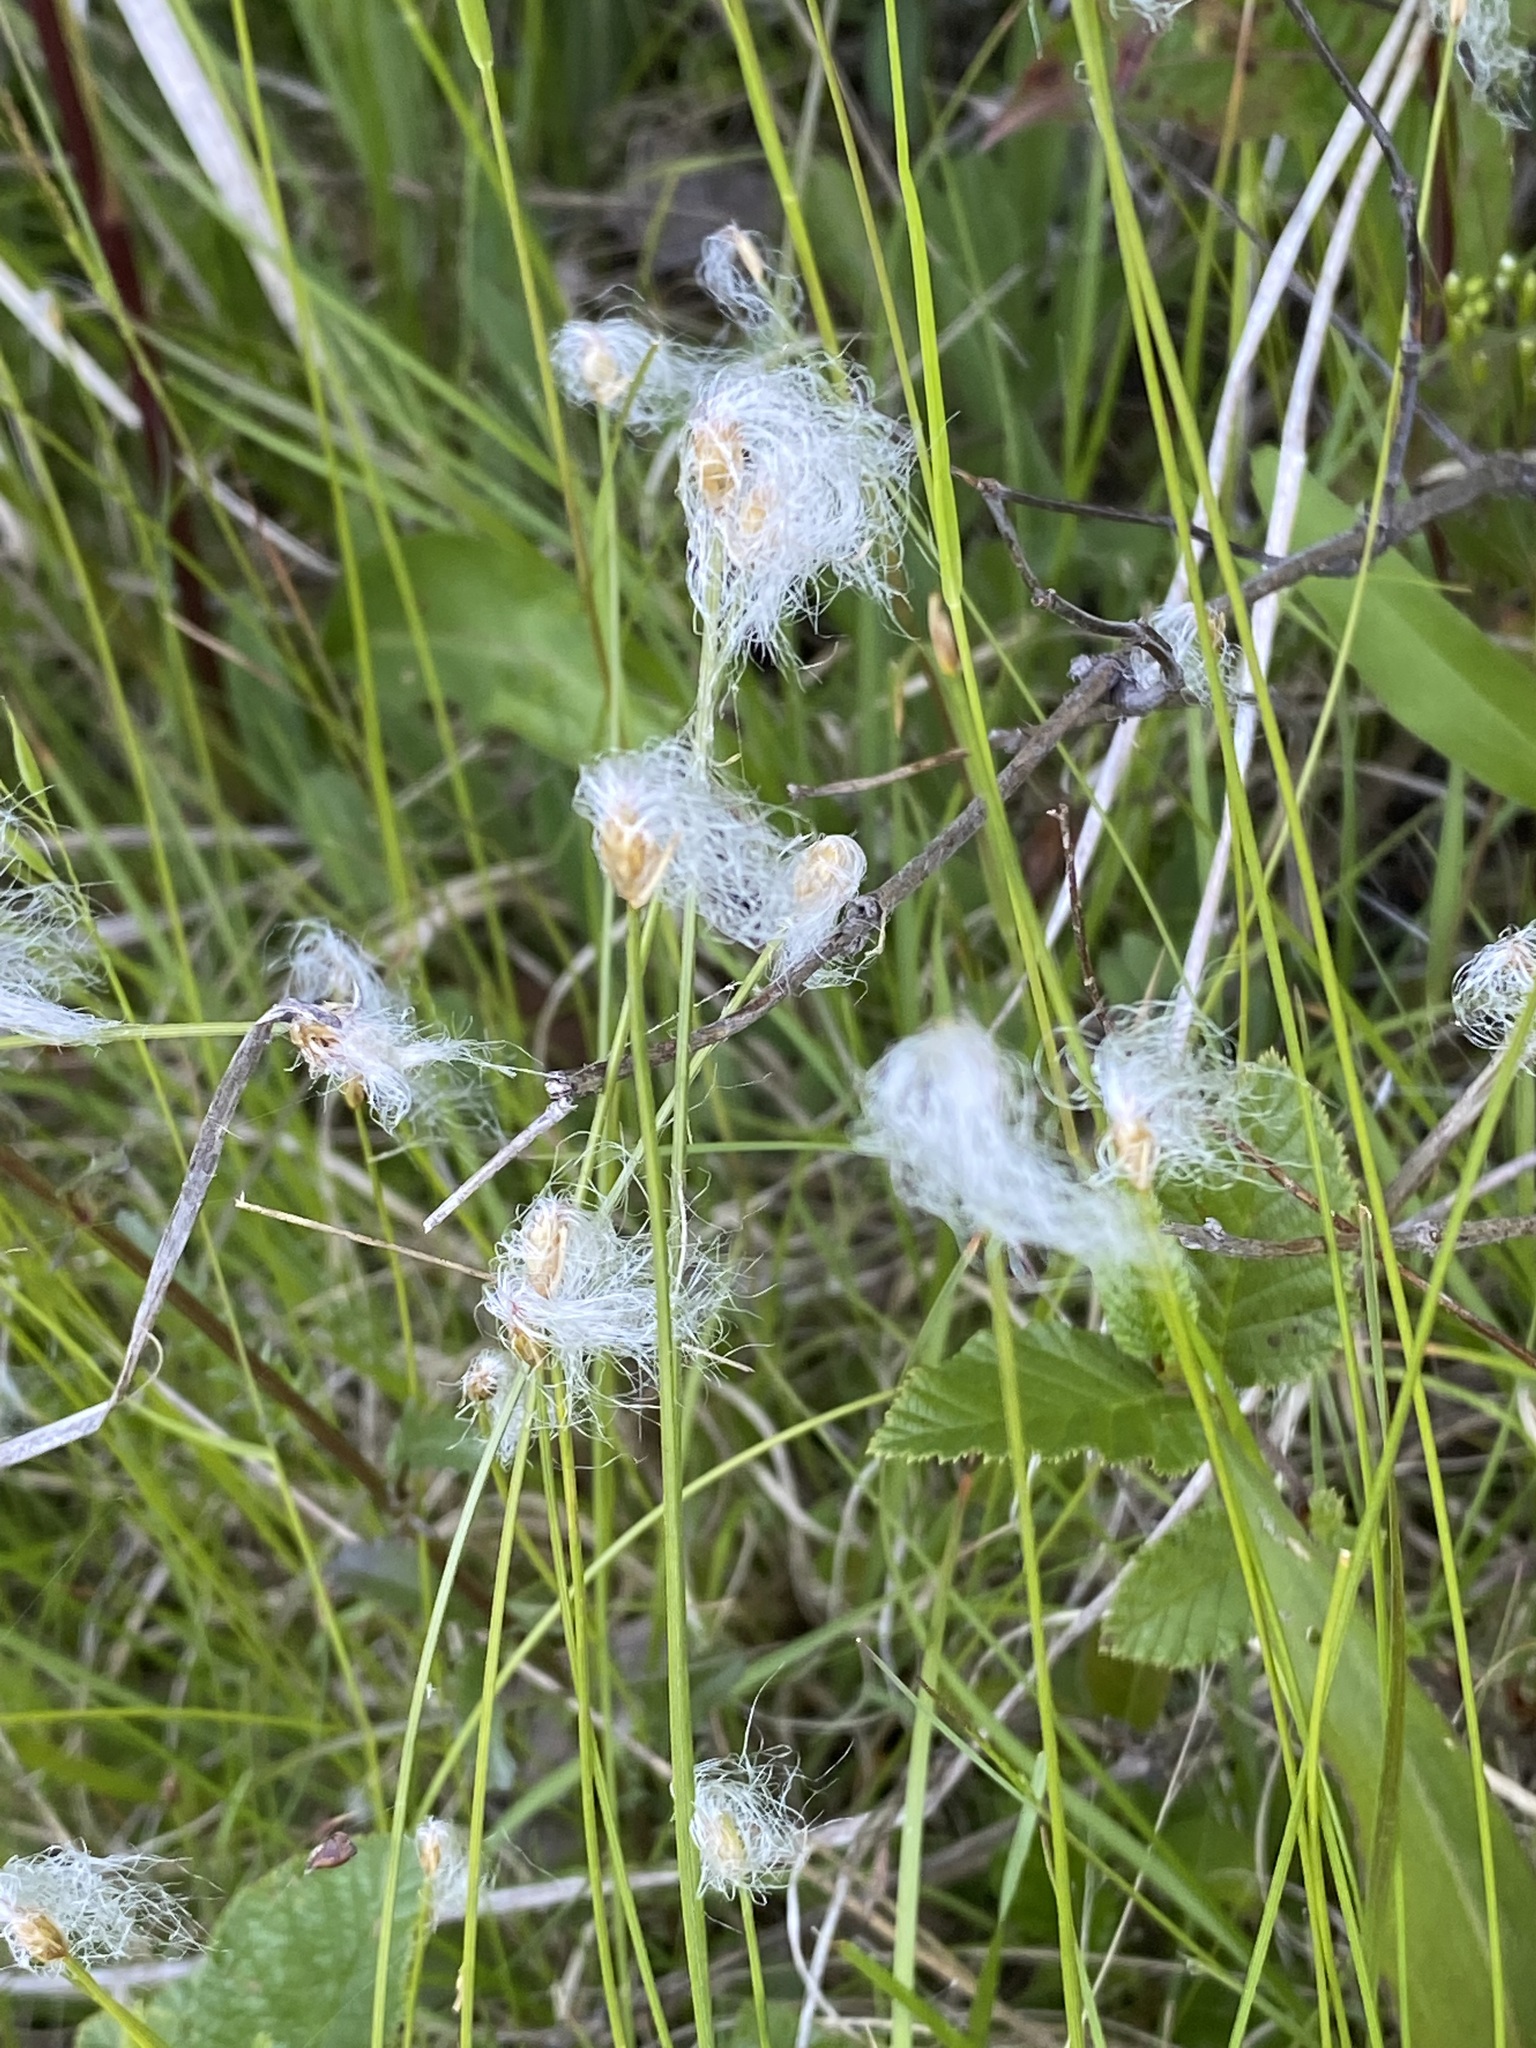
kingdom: Plantae
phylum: Tracheophyta
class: Liliopsida
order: Poales
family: Cyperaceae
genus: Trichophorum
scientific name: Trichophorum alpinum
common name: Alpine bulrush
